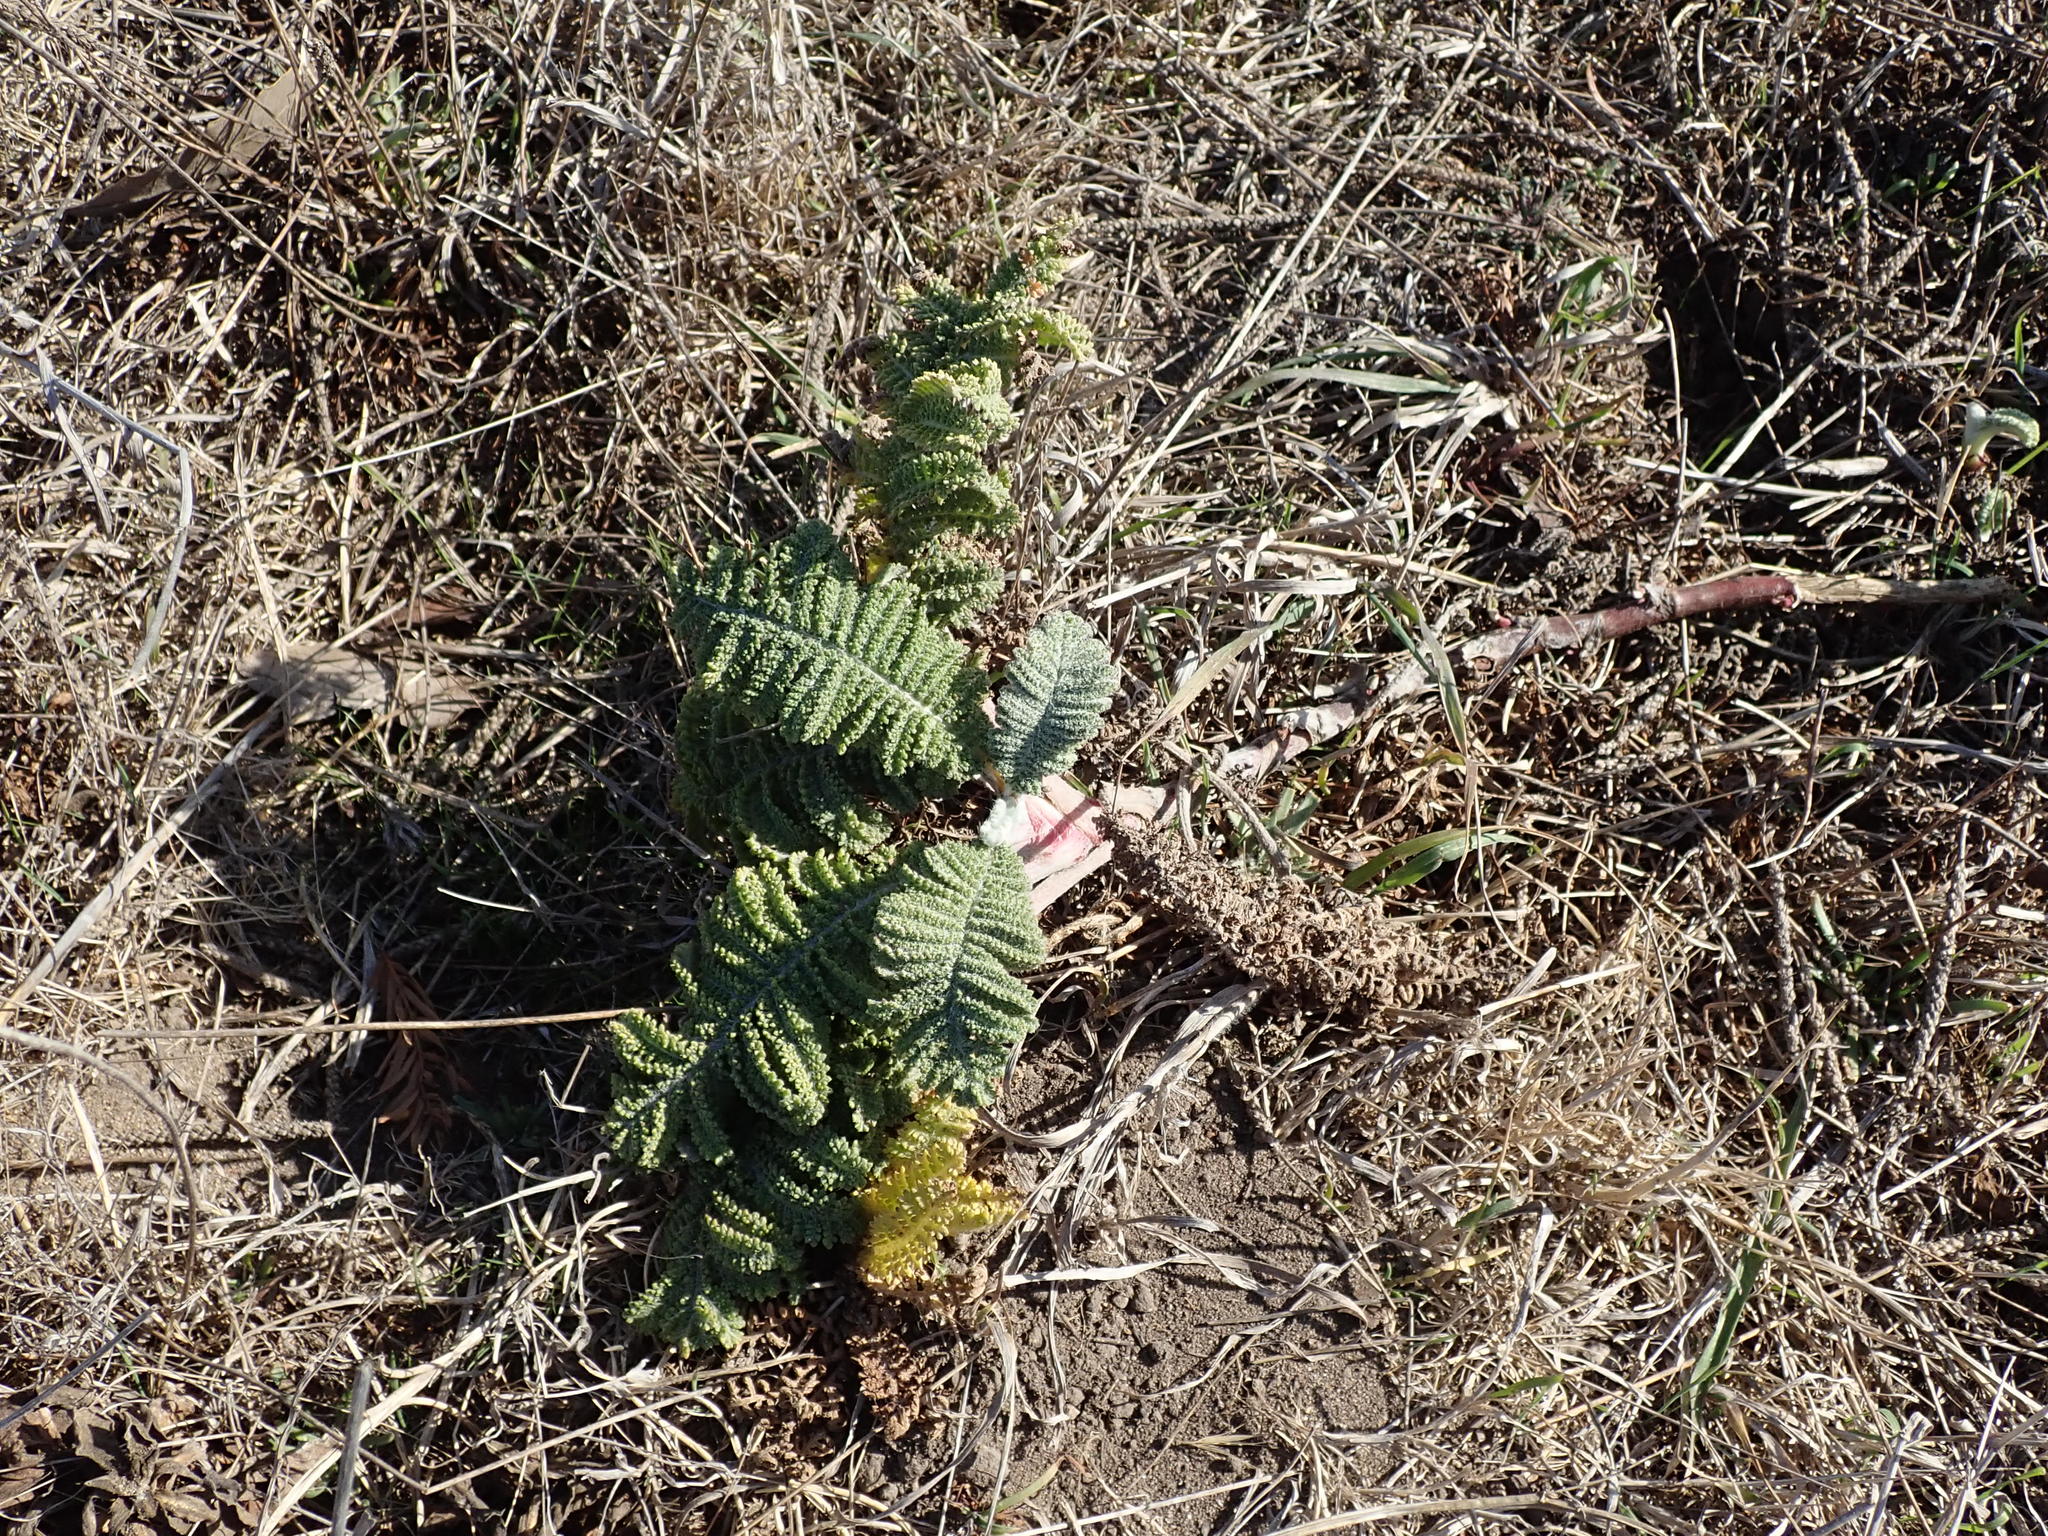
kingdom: Plantae
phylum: Tracheophyta
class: Magnoliopsida
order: Asterales
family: Asteraceae
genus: Tanacetum
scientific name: Tanacetum bipinnatum
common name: Dwarf tansy
